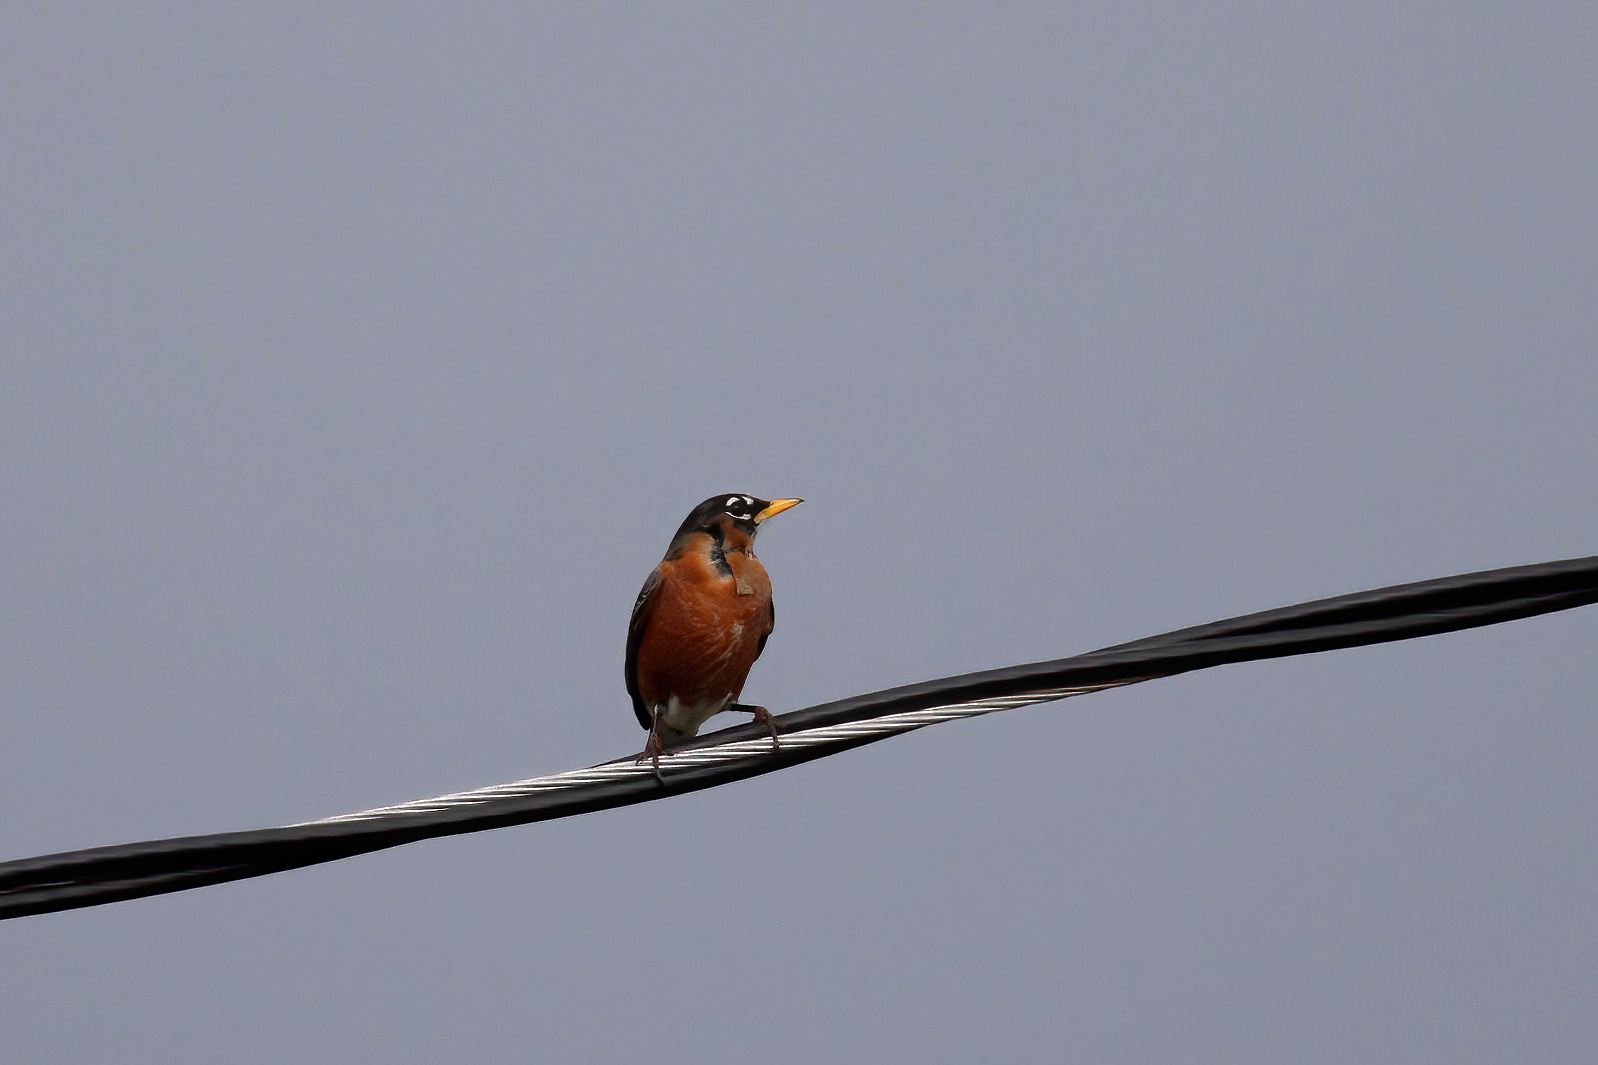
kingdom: Animalia
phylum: Chordata
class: Aves
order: Passeriformes
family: Turdidae
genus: Turdus
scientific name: Turdus migratorius
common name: American robin
